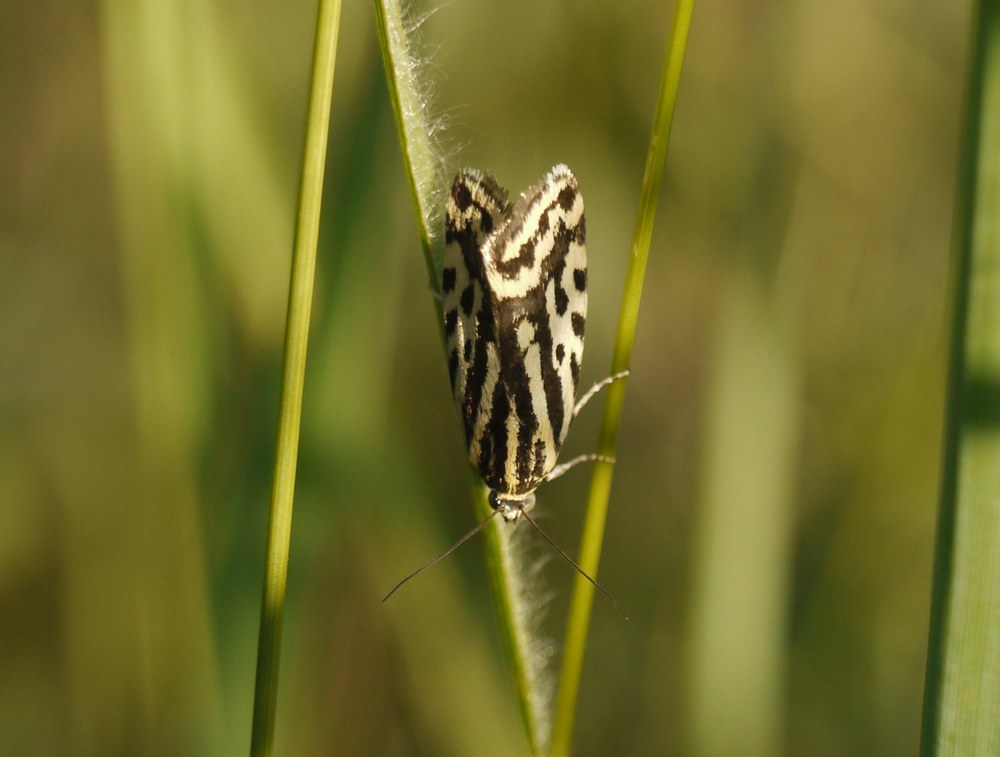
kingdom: Animalia
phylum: Arthropoda
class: Insecta
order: Lepidoptera
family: Noctuidae
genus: Acontia
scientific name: Acontia trabealis
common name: Spotted sulphur
